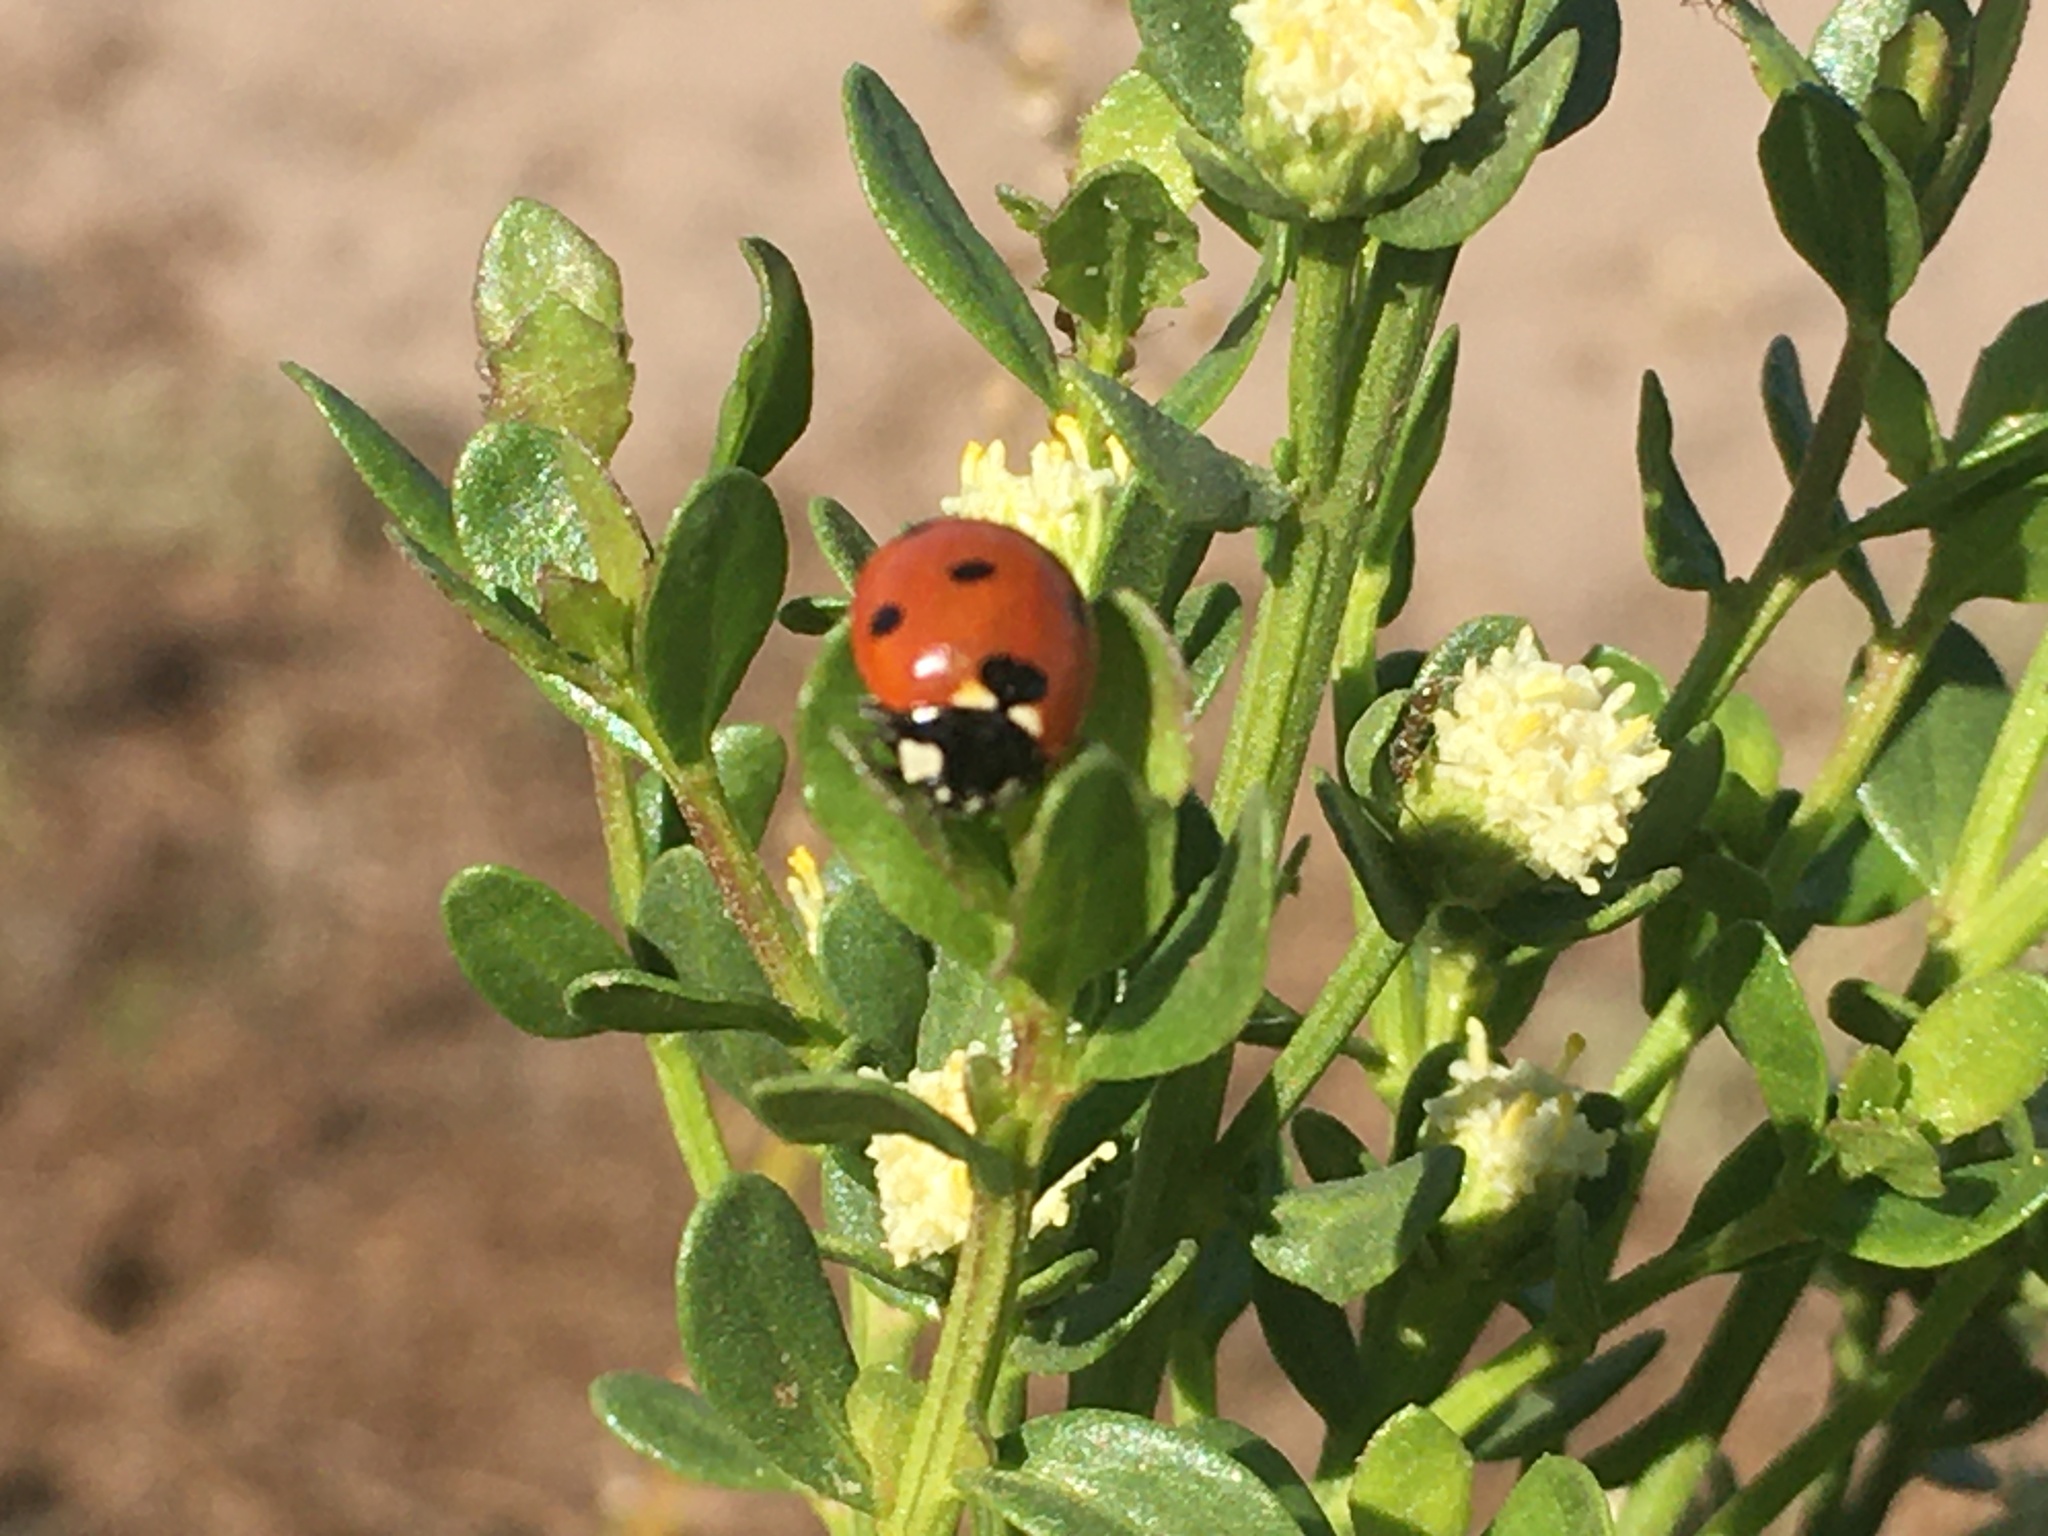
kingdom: Animalia
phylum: Arthropoda
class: Insecta
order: Coleoptera
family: Coccinellidae
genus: Coccinella
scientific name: Coccinella septempunctata
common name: Sevenspotted lady beetle
